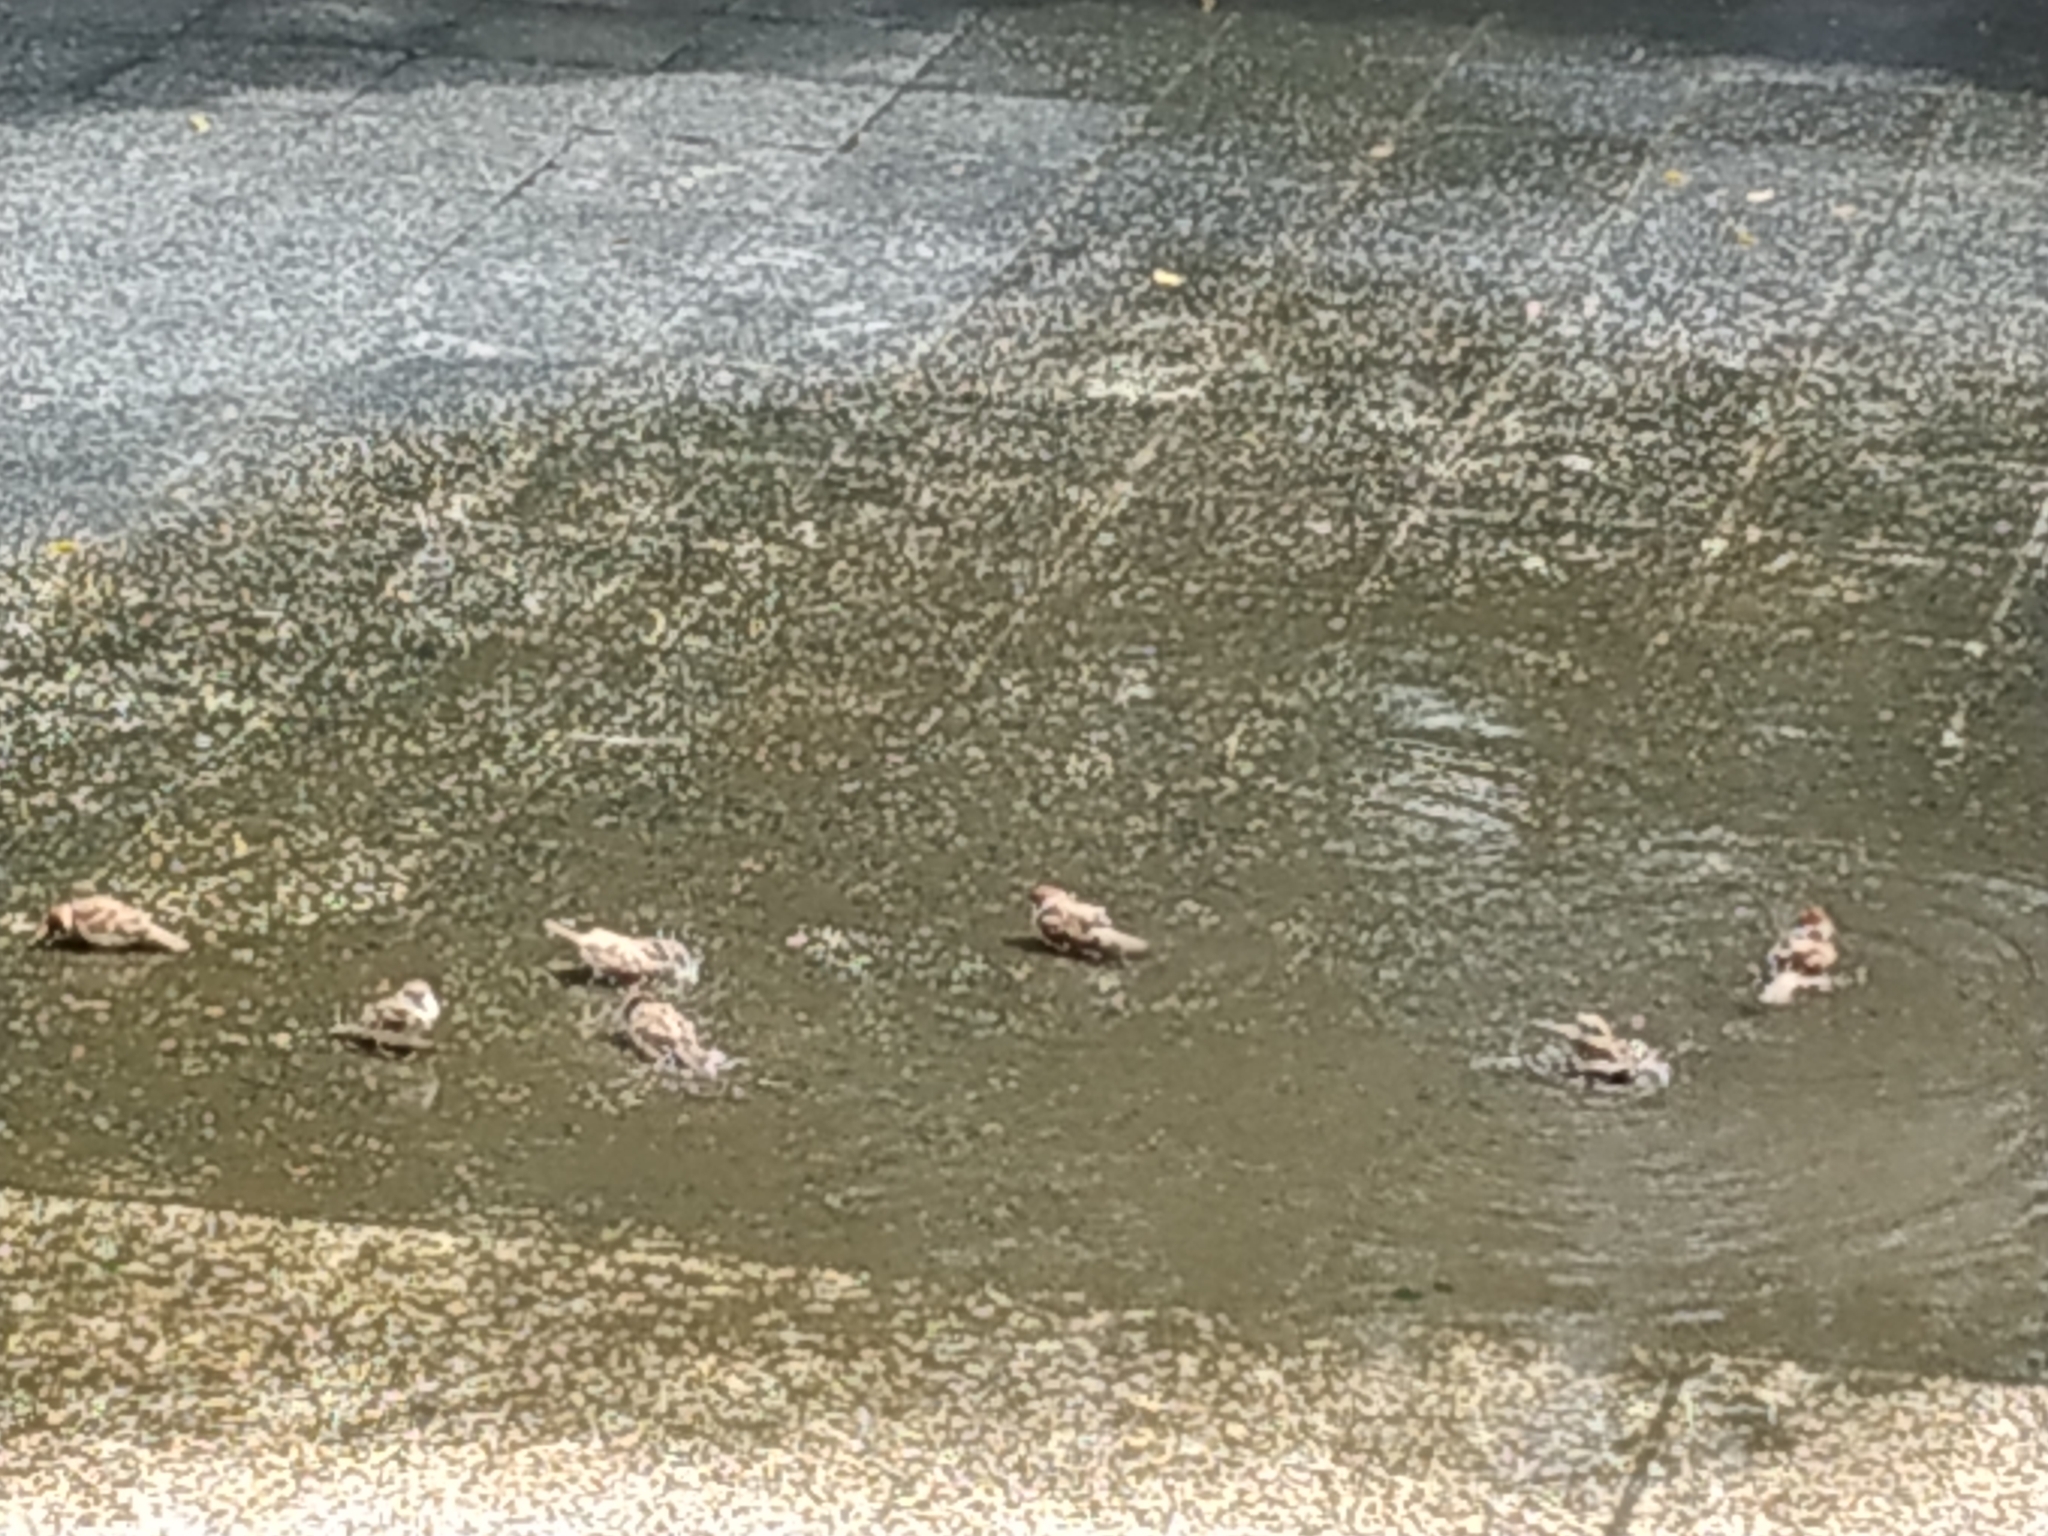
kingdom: Animalia
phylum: Chordata
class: Aves
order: Passeriformes
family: Passeridae
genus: Passer
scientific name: Passer montanus
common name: Eurasian tree sparrow
